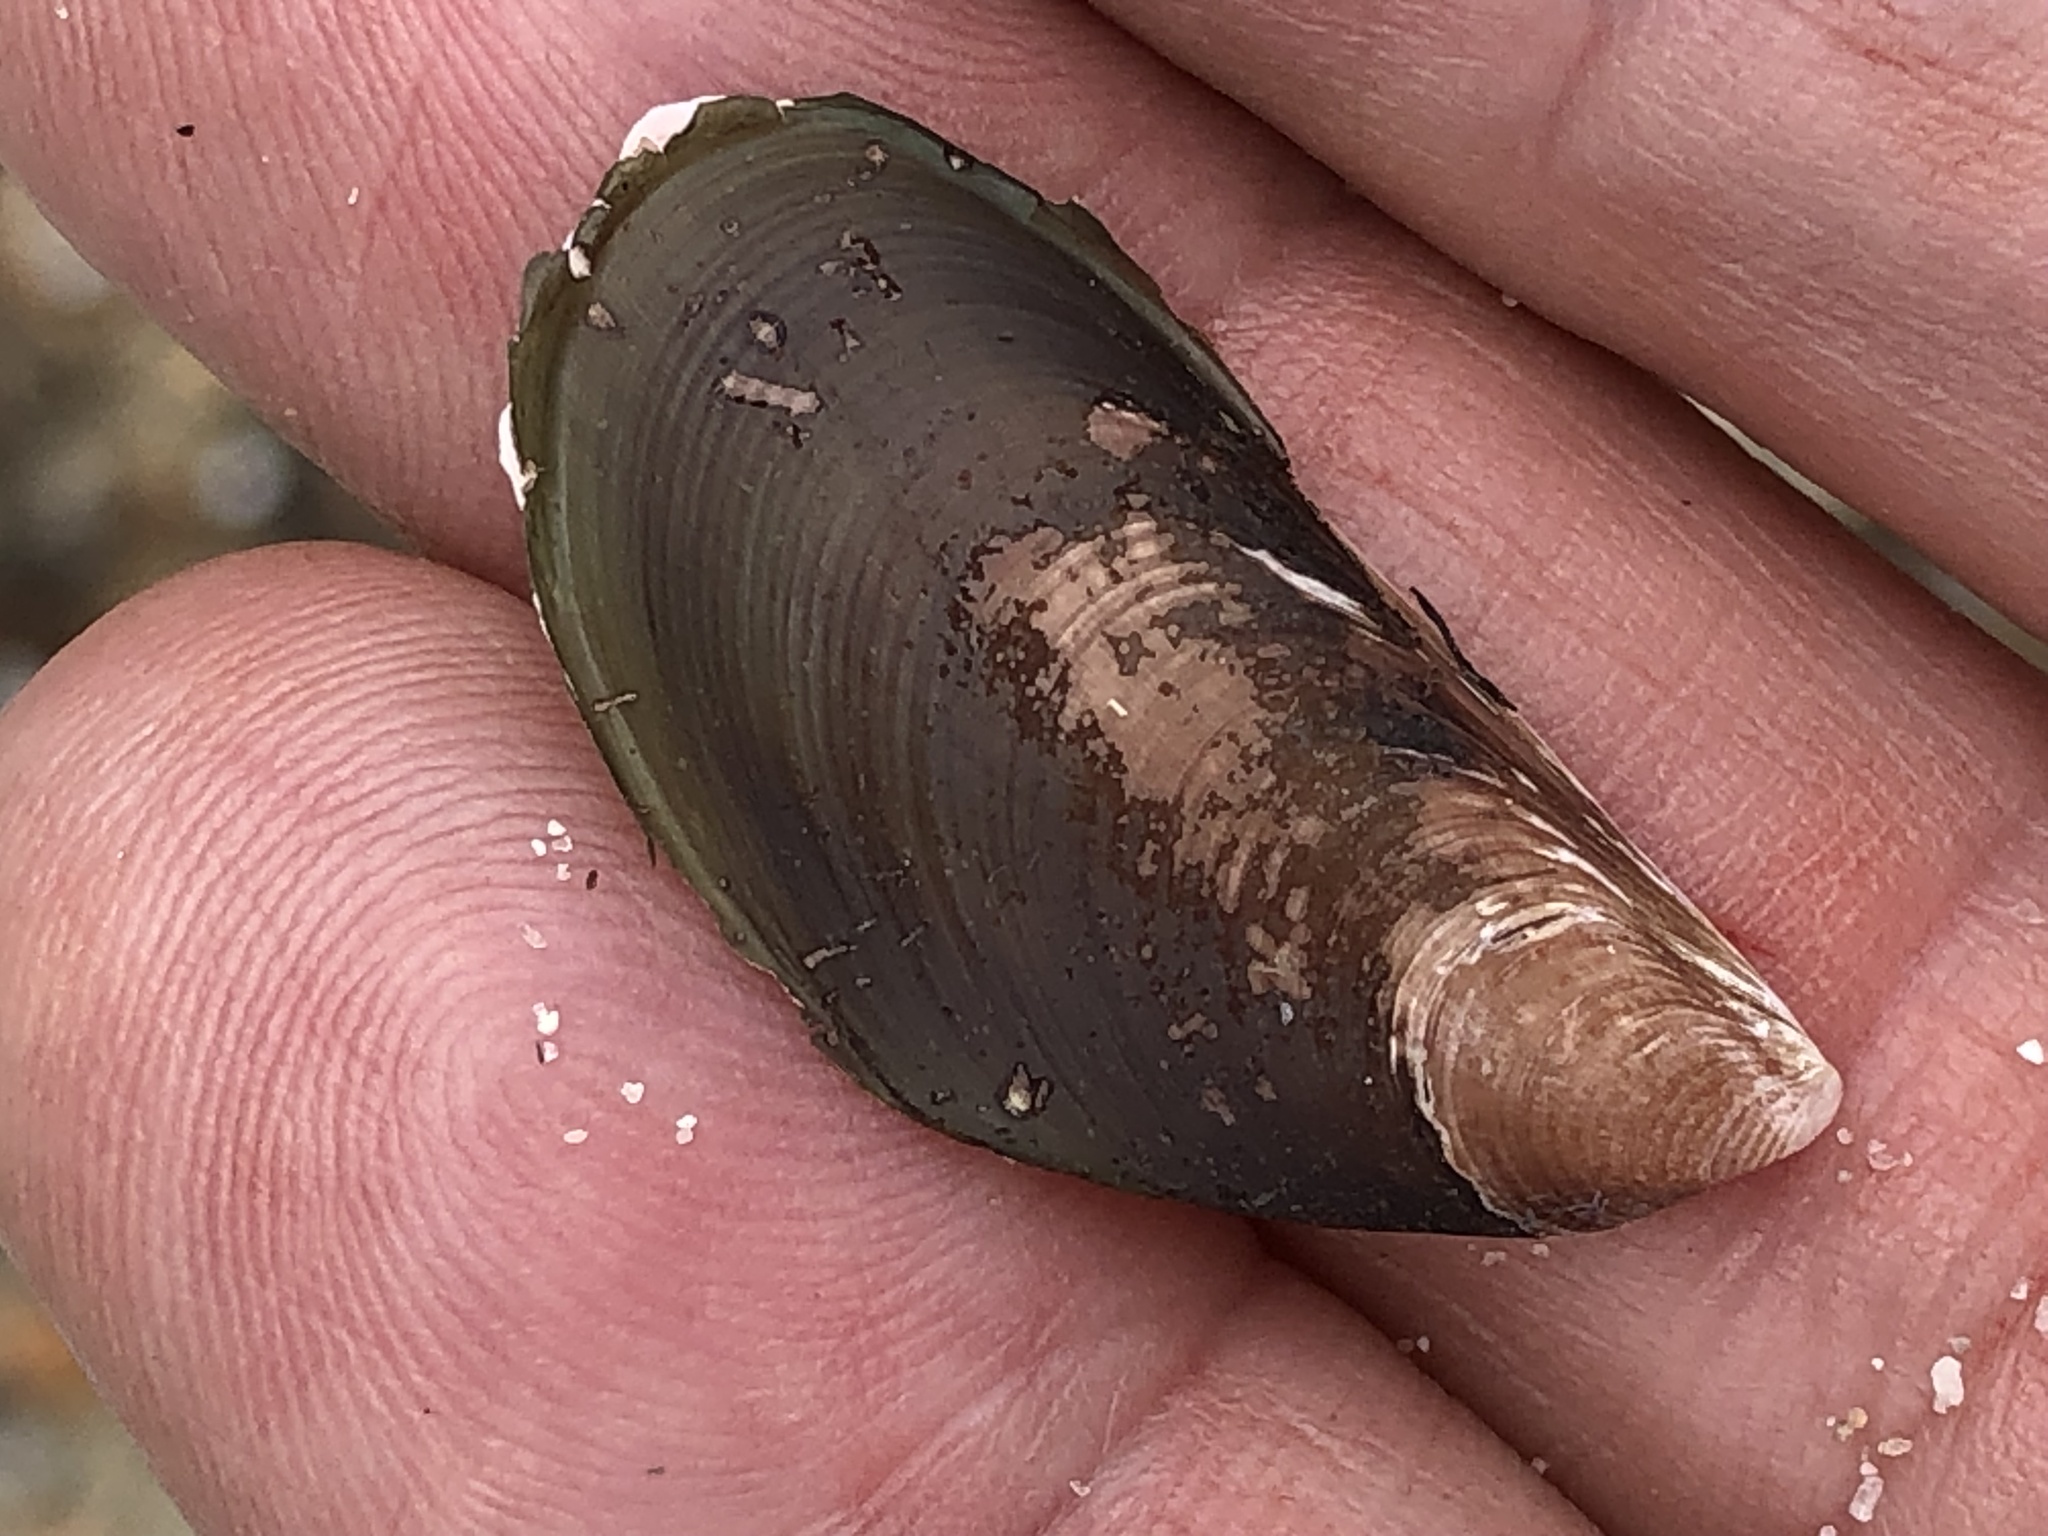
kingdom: Animalia
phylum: Mollusca
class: Bivalvia
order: Mytilida
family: Mytilidae
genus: Perna
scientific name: Perna viridis
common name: Green mussel
